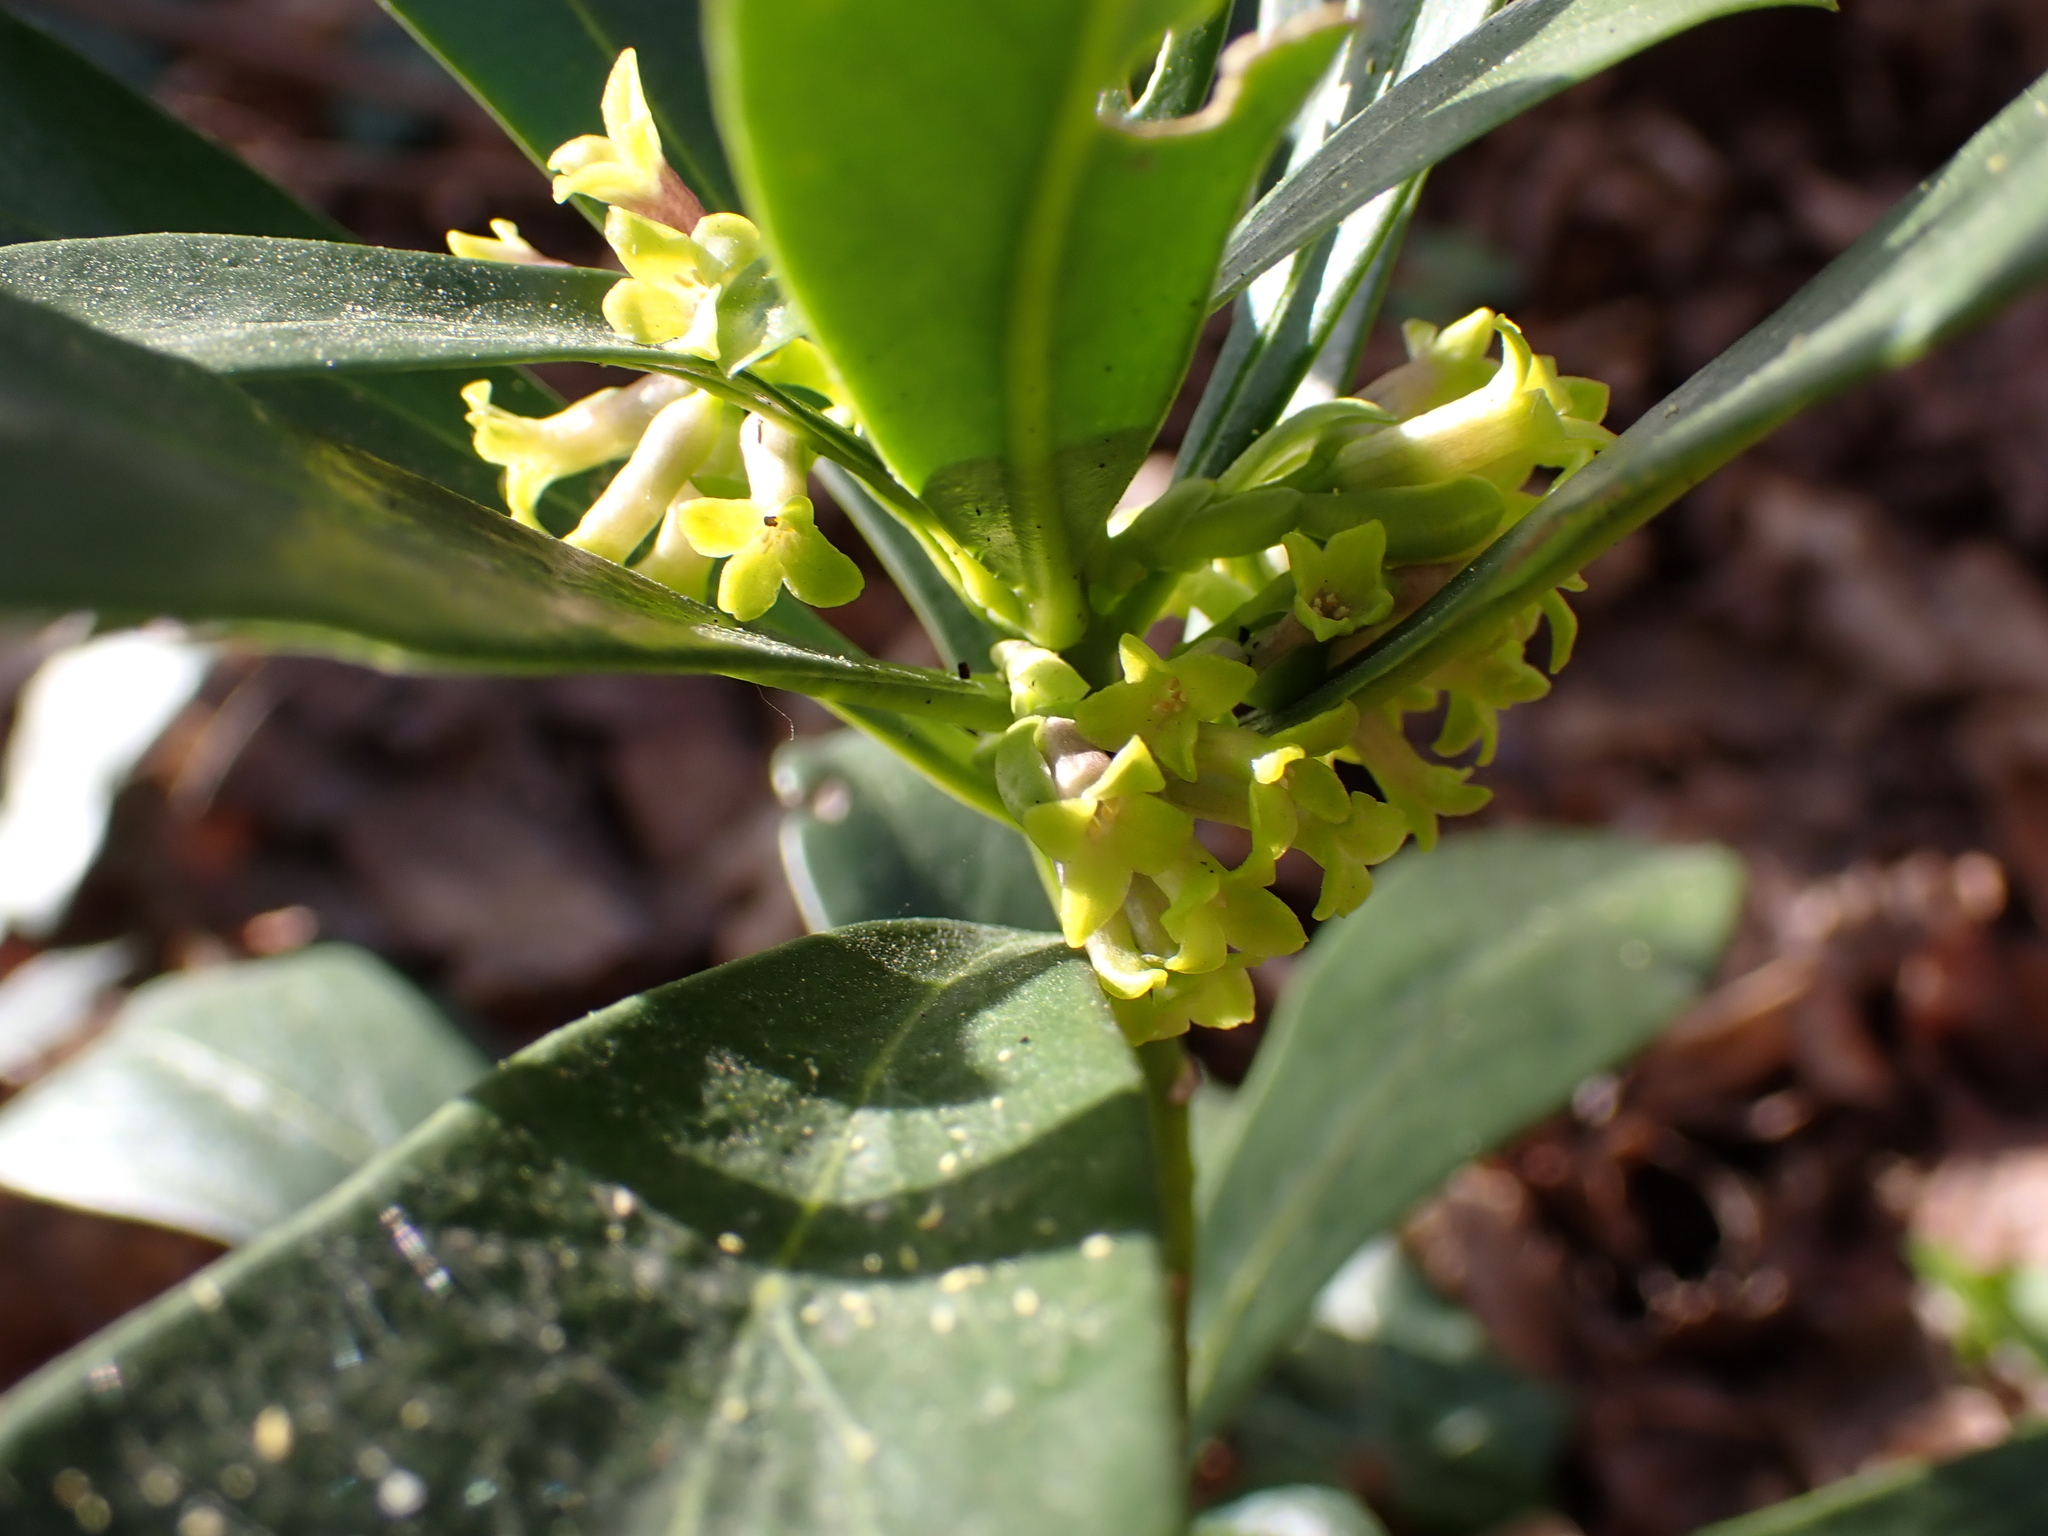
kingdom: Plantae
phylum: Tracheophyta
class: Magnoliopsida
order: Malvales
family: Thymelaeaceae
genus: Daphne
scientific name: Daphne laureola
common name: Spurge-laurel
